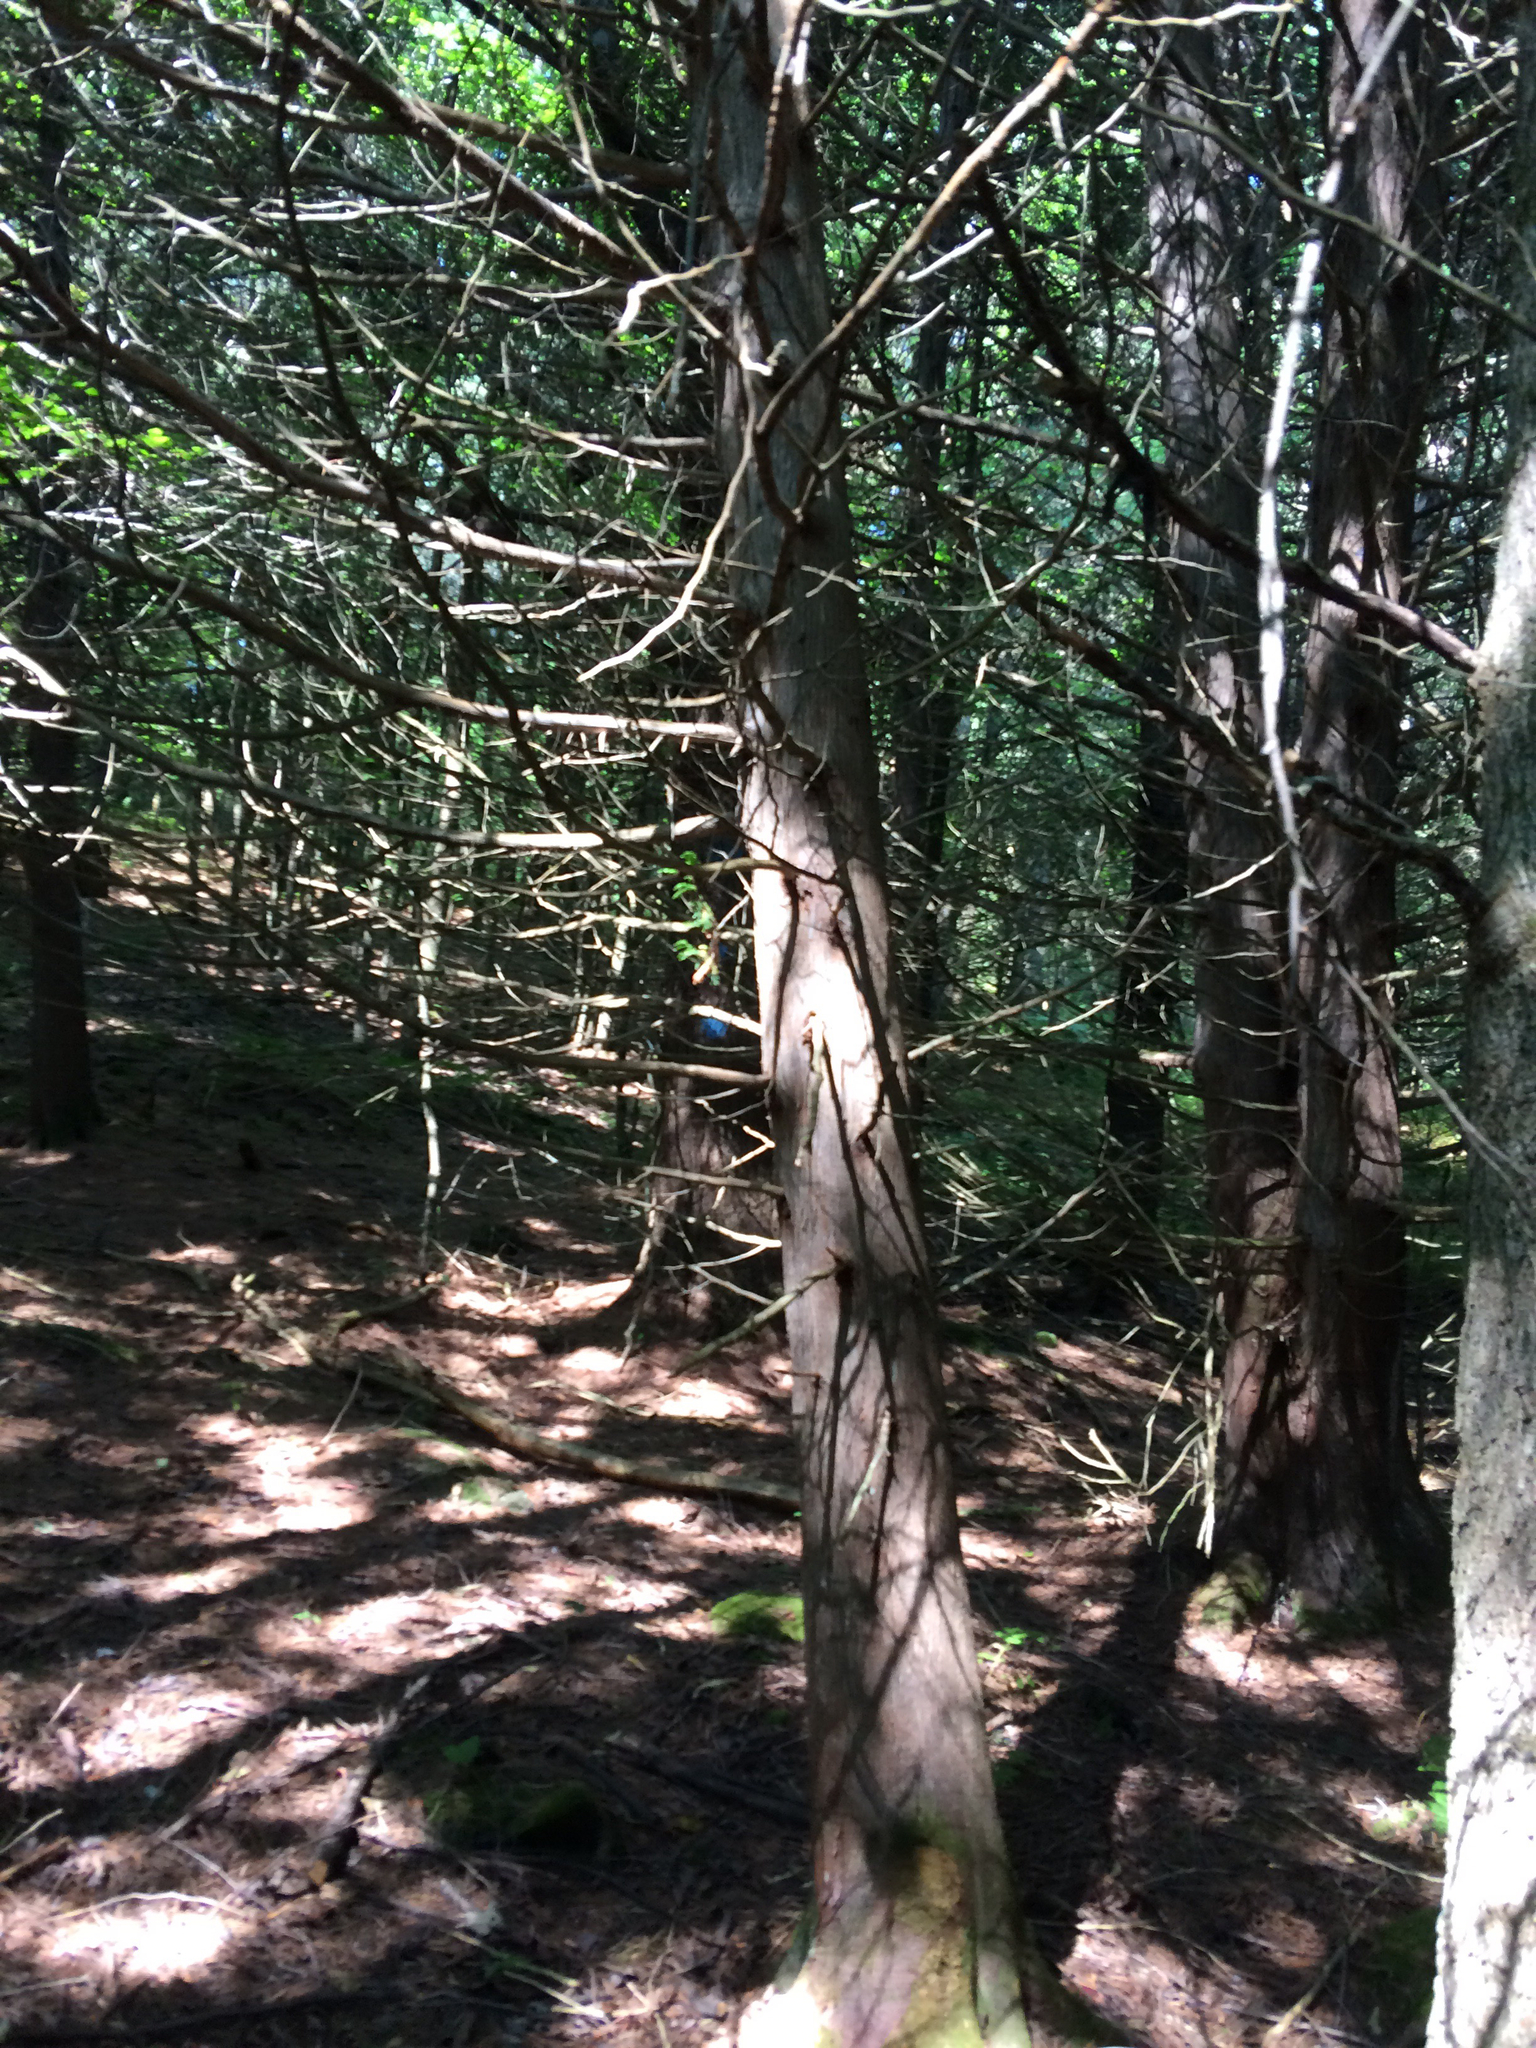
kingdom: Plantae
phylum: Tracheophyta
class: Pinopsida
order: Pinales
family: Cupressaceae
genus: Thuja
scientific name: Thuja occidentalis
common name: Northern white-cedar
